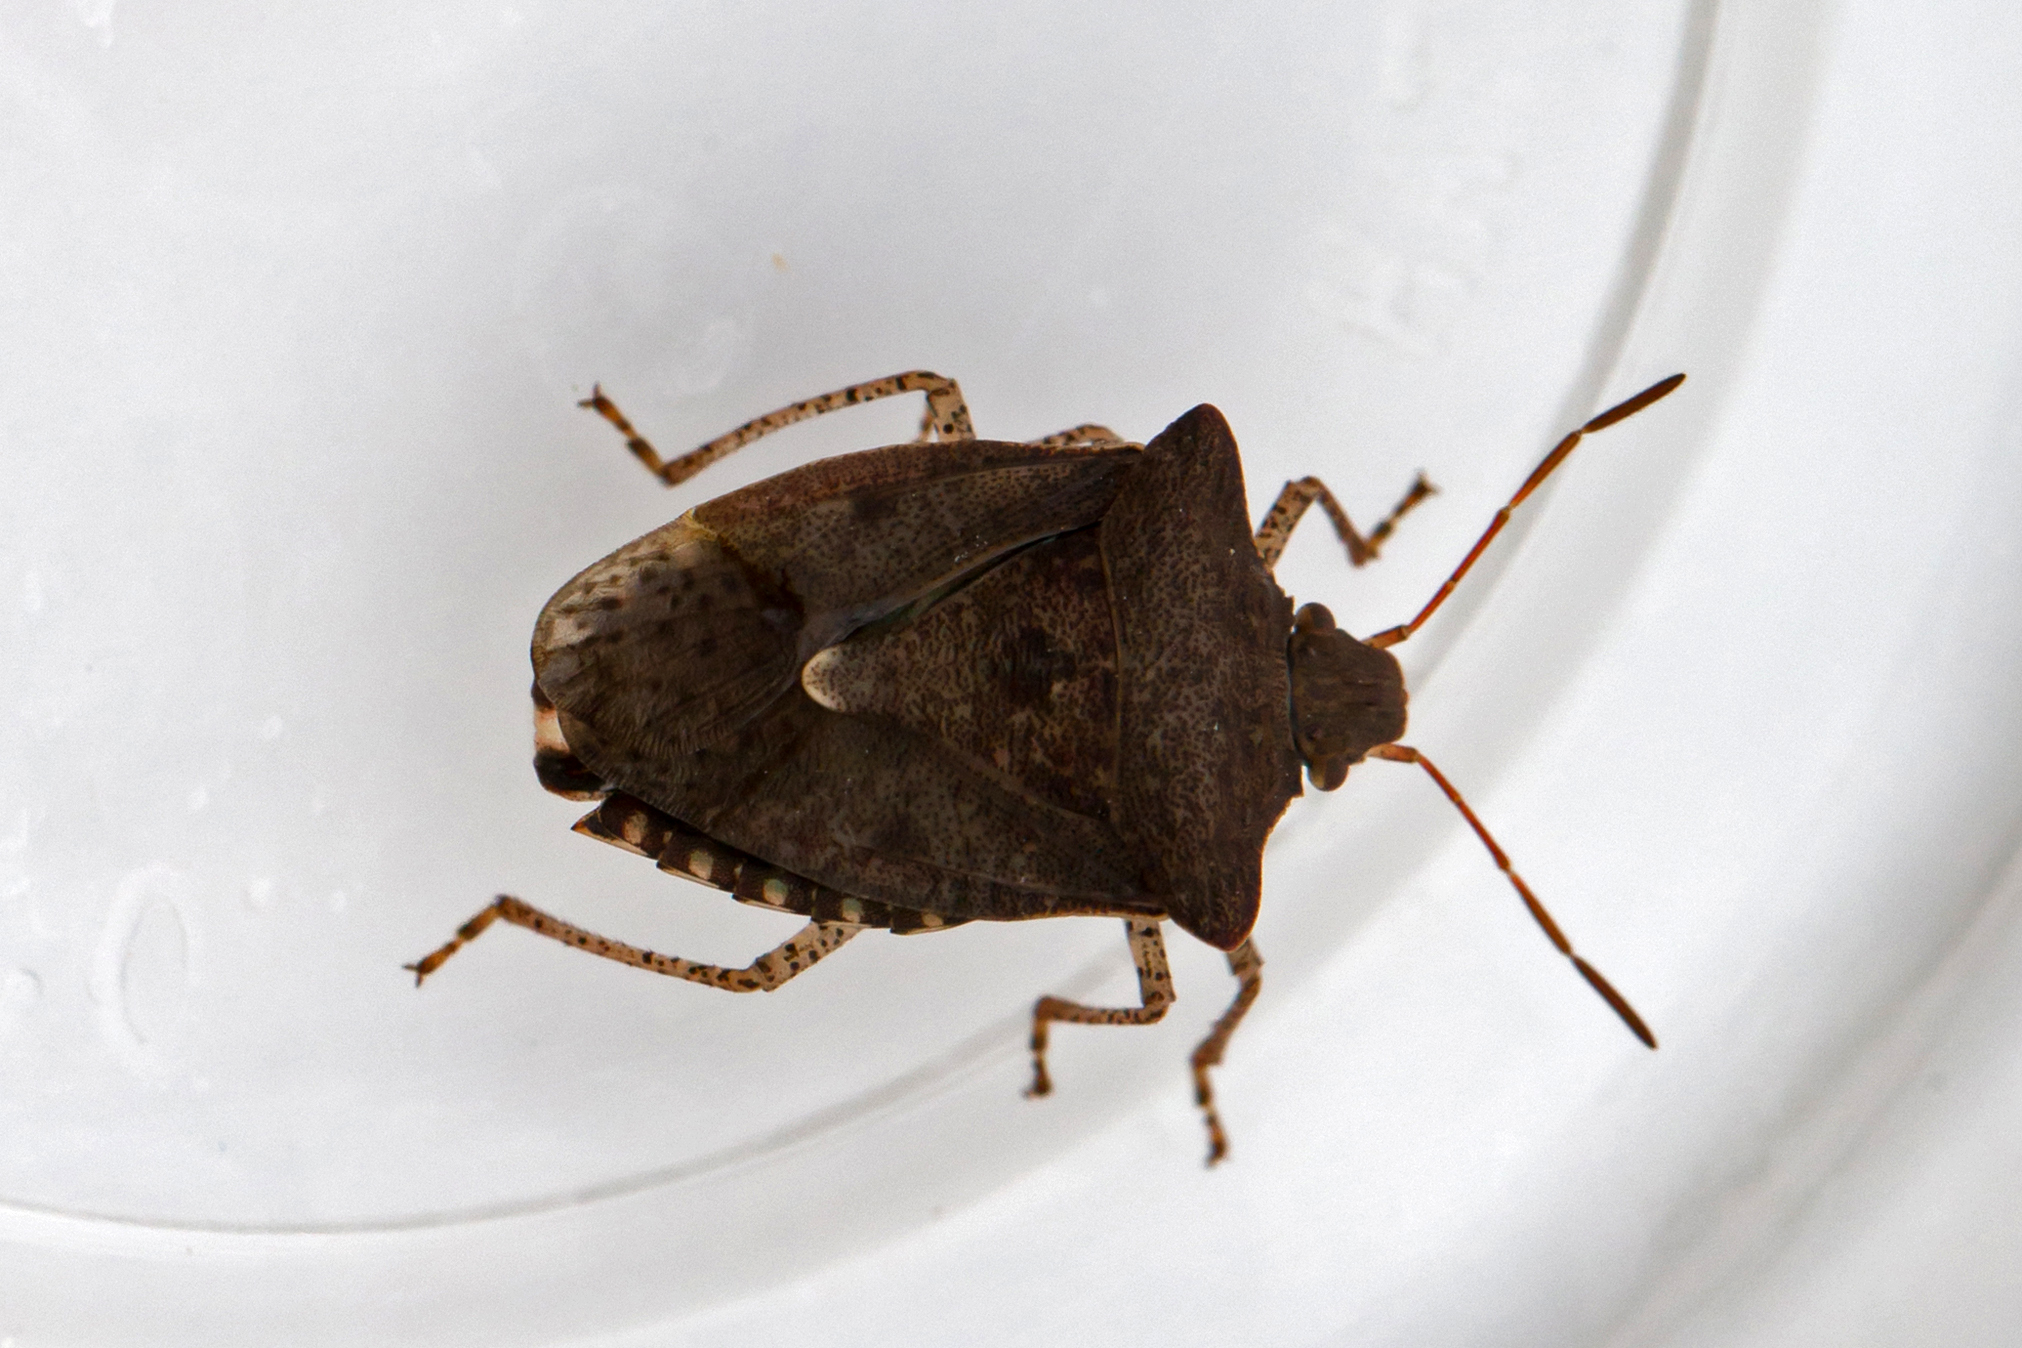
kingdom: Animalia
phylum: Arthropoda
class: Insecta
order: Hemiptera
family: Pentatomidae
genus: Euschistus
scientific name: Euschistus tristigmus
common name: Dusky stink bug
